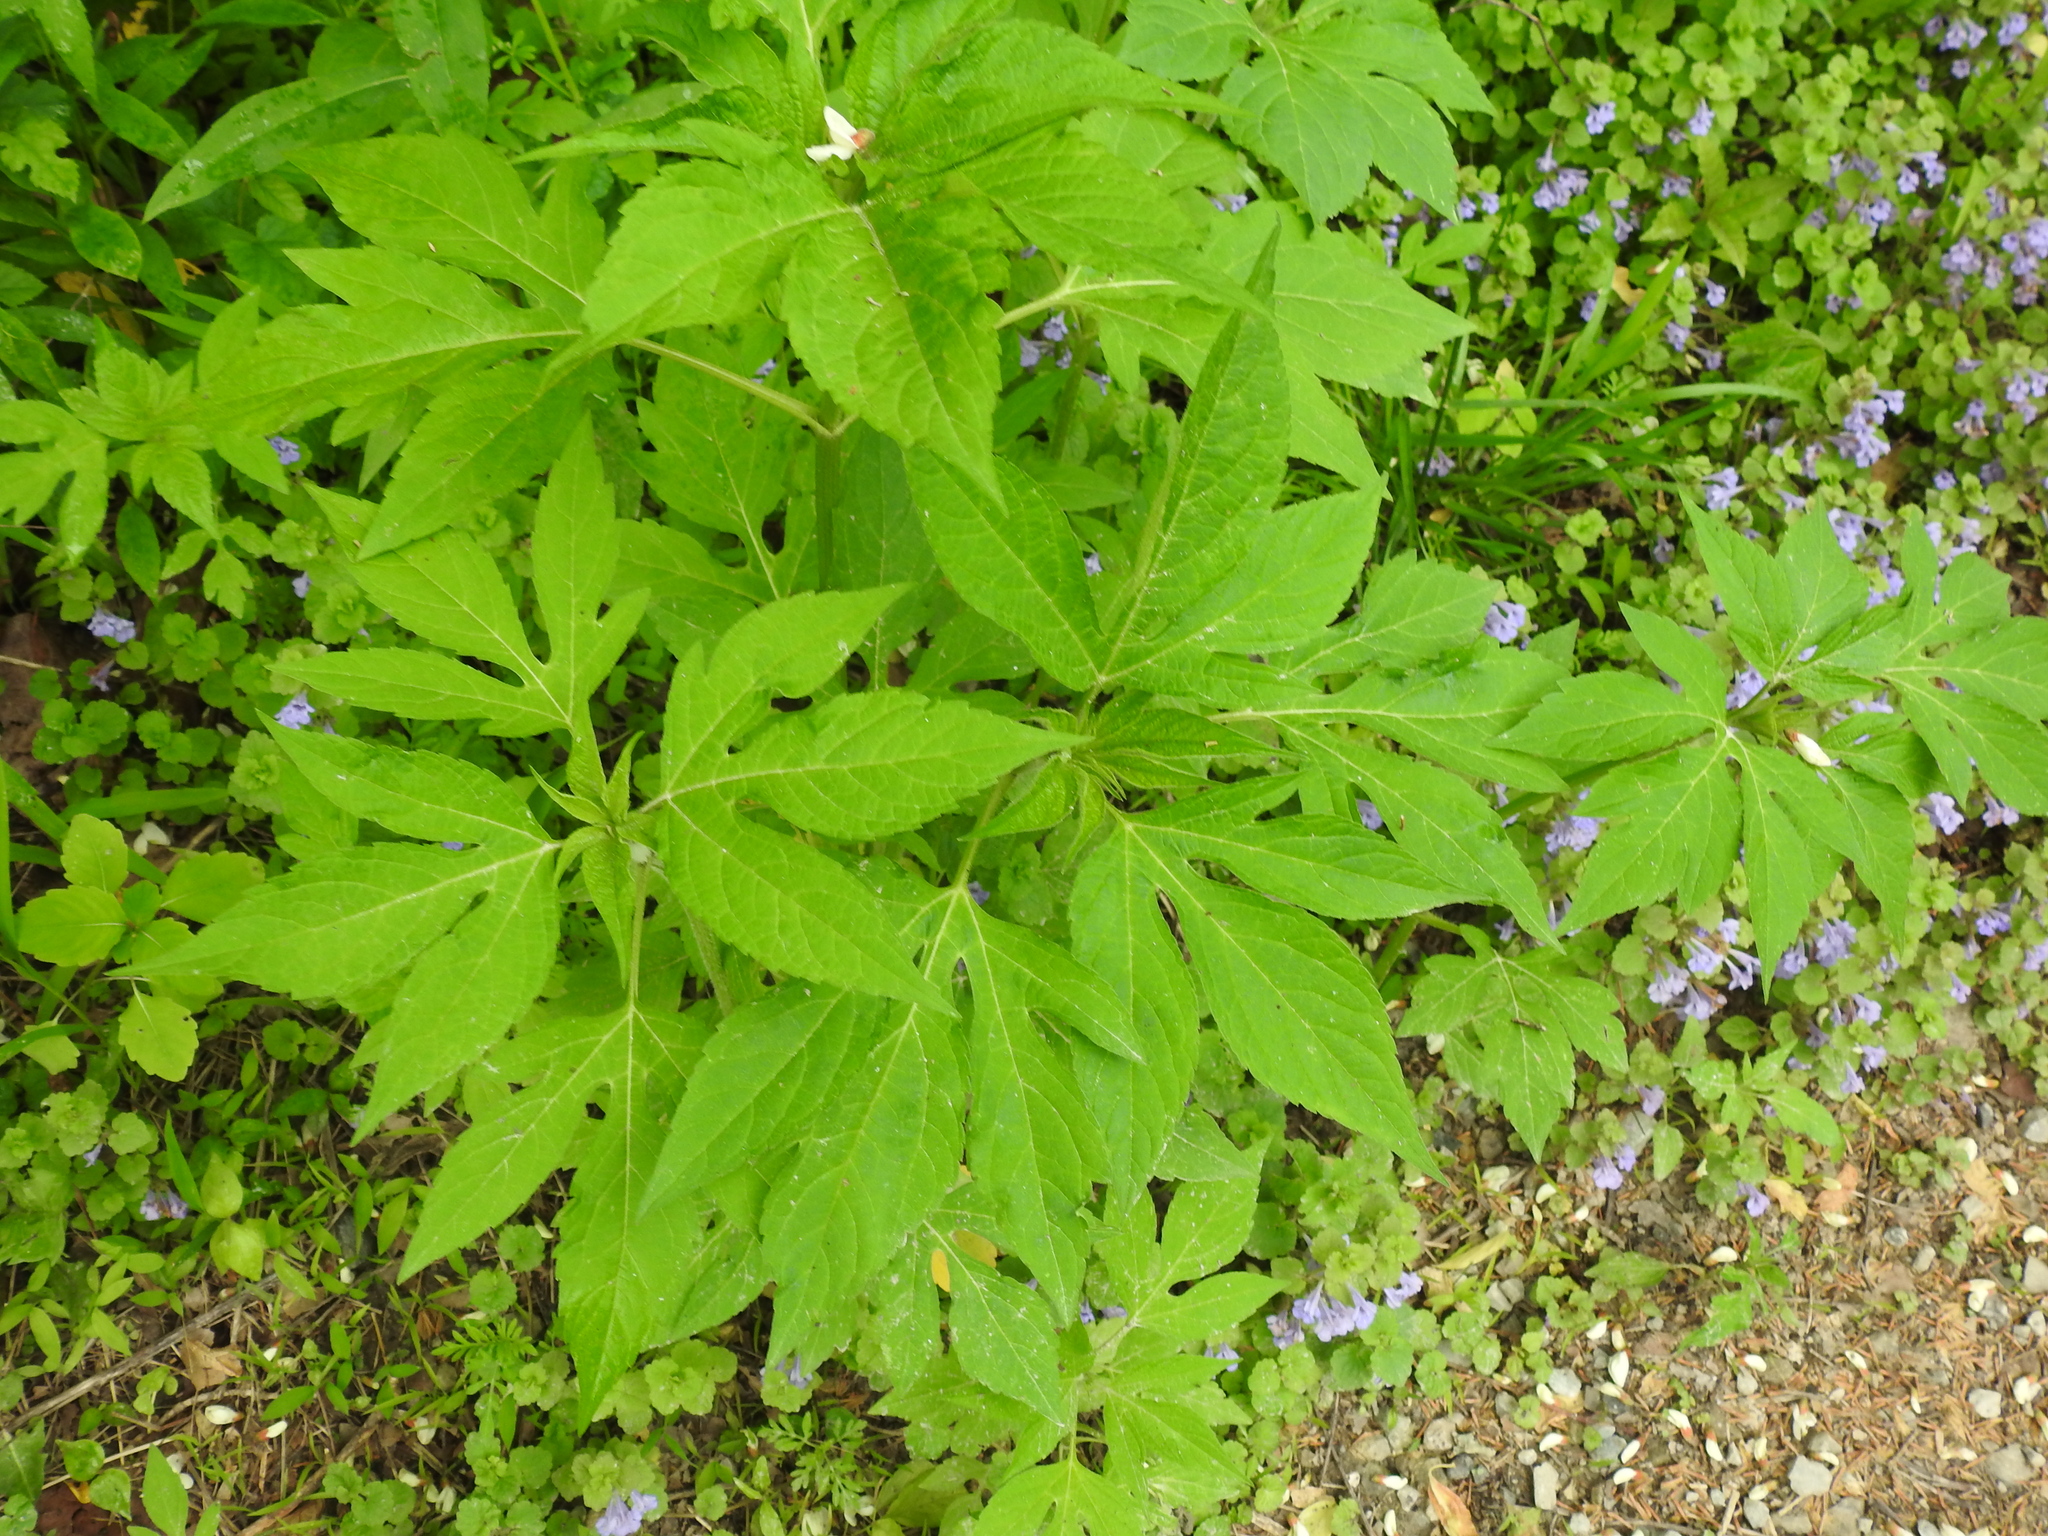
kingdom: Plantae
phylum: Tracheophyta
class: Magnoliopsida
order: Asterales
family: Asteraceae
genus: Ambrosia
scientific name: Ambrosia trifida
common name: Giant ragweed
